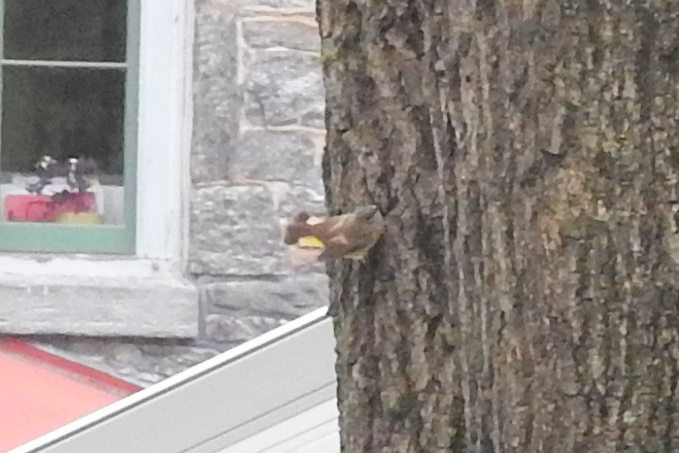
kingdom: Animalia
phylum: Chordata
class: Aves
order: Passeriformes
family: Parulidae
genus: Setophaga
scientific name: Setophaga ruticilla
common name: American redstart
